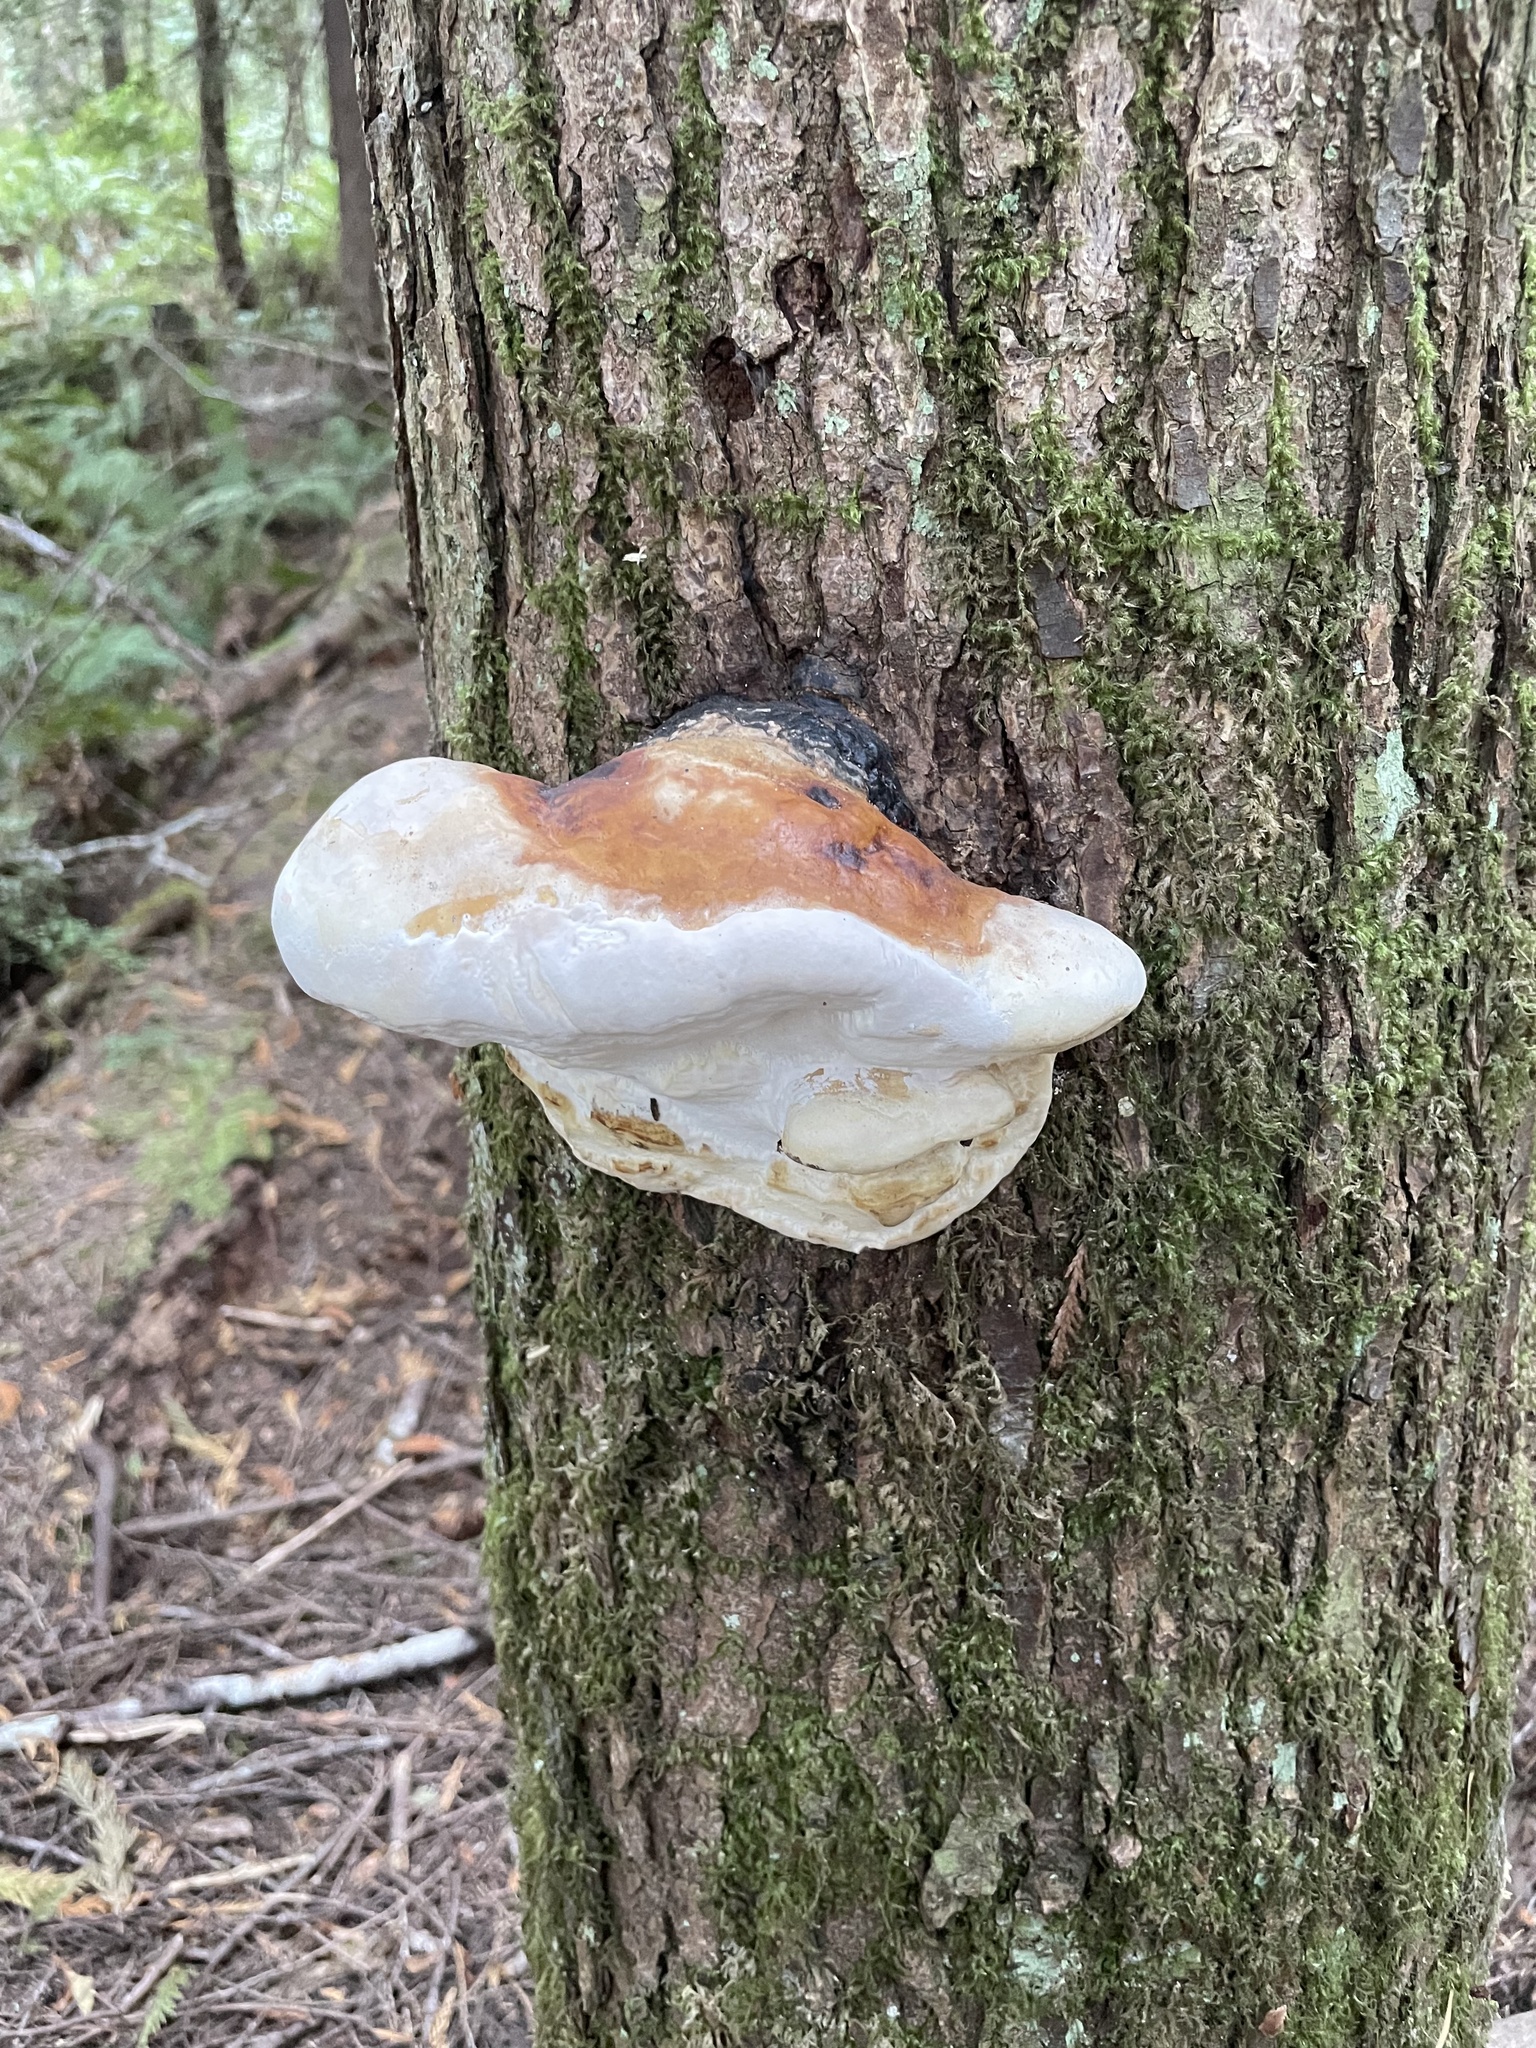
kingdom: Fungi
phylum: Basidiomycota
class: Agaricomycetes
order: Polyporales
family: Fomitopsidaceae
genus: Fomitopsis
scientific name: Fomitopsis mounceae
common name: Northern red belt
